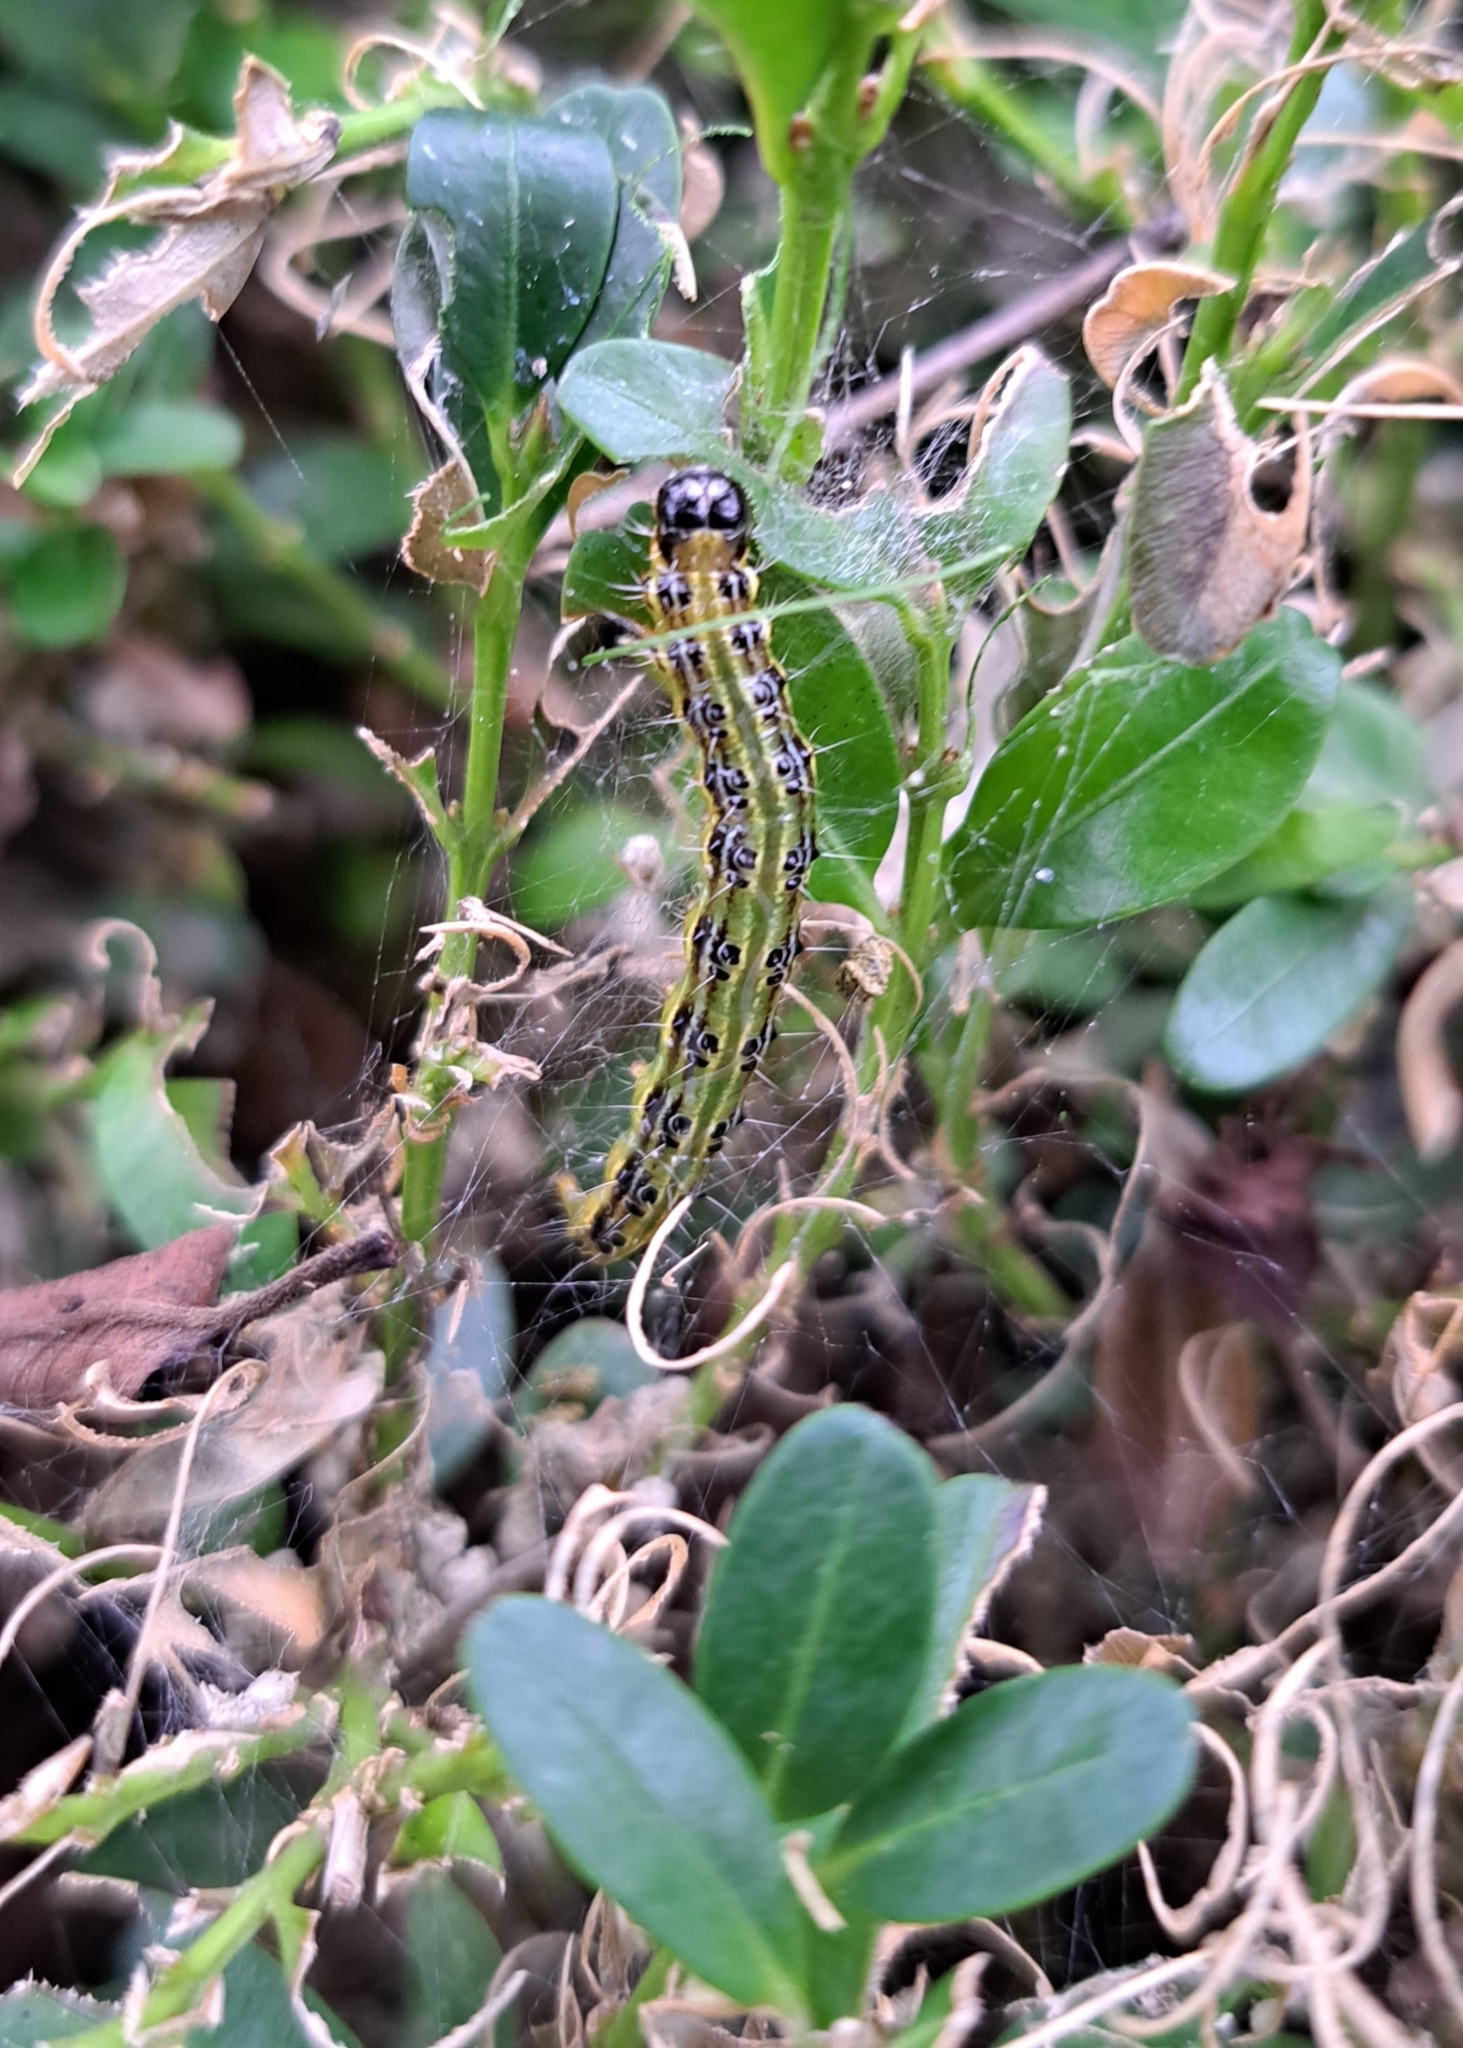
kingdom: Animalia
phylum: Arthropoda
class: Insecta
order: Lepidoptera
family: Crambidae
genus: Cydalima
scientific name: Cydalima perspectalis
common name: Box tree moth
